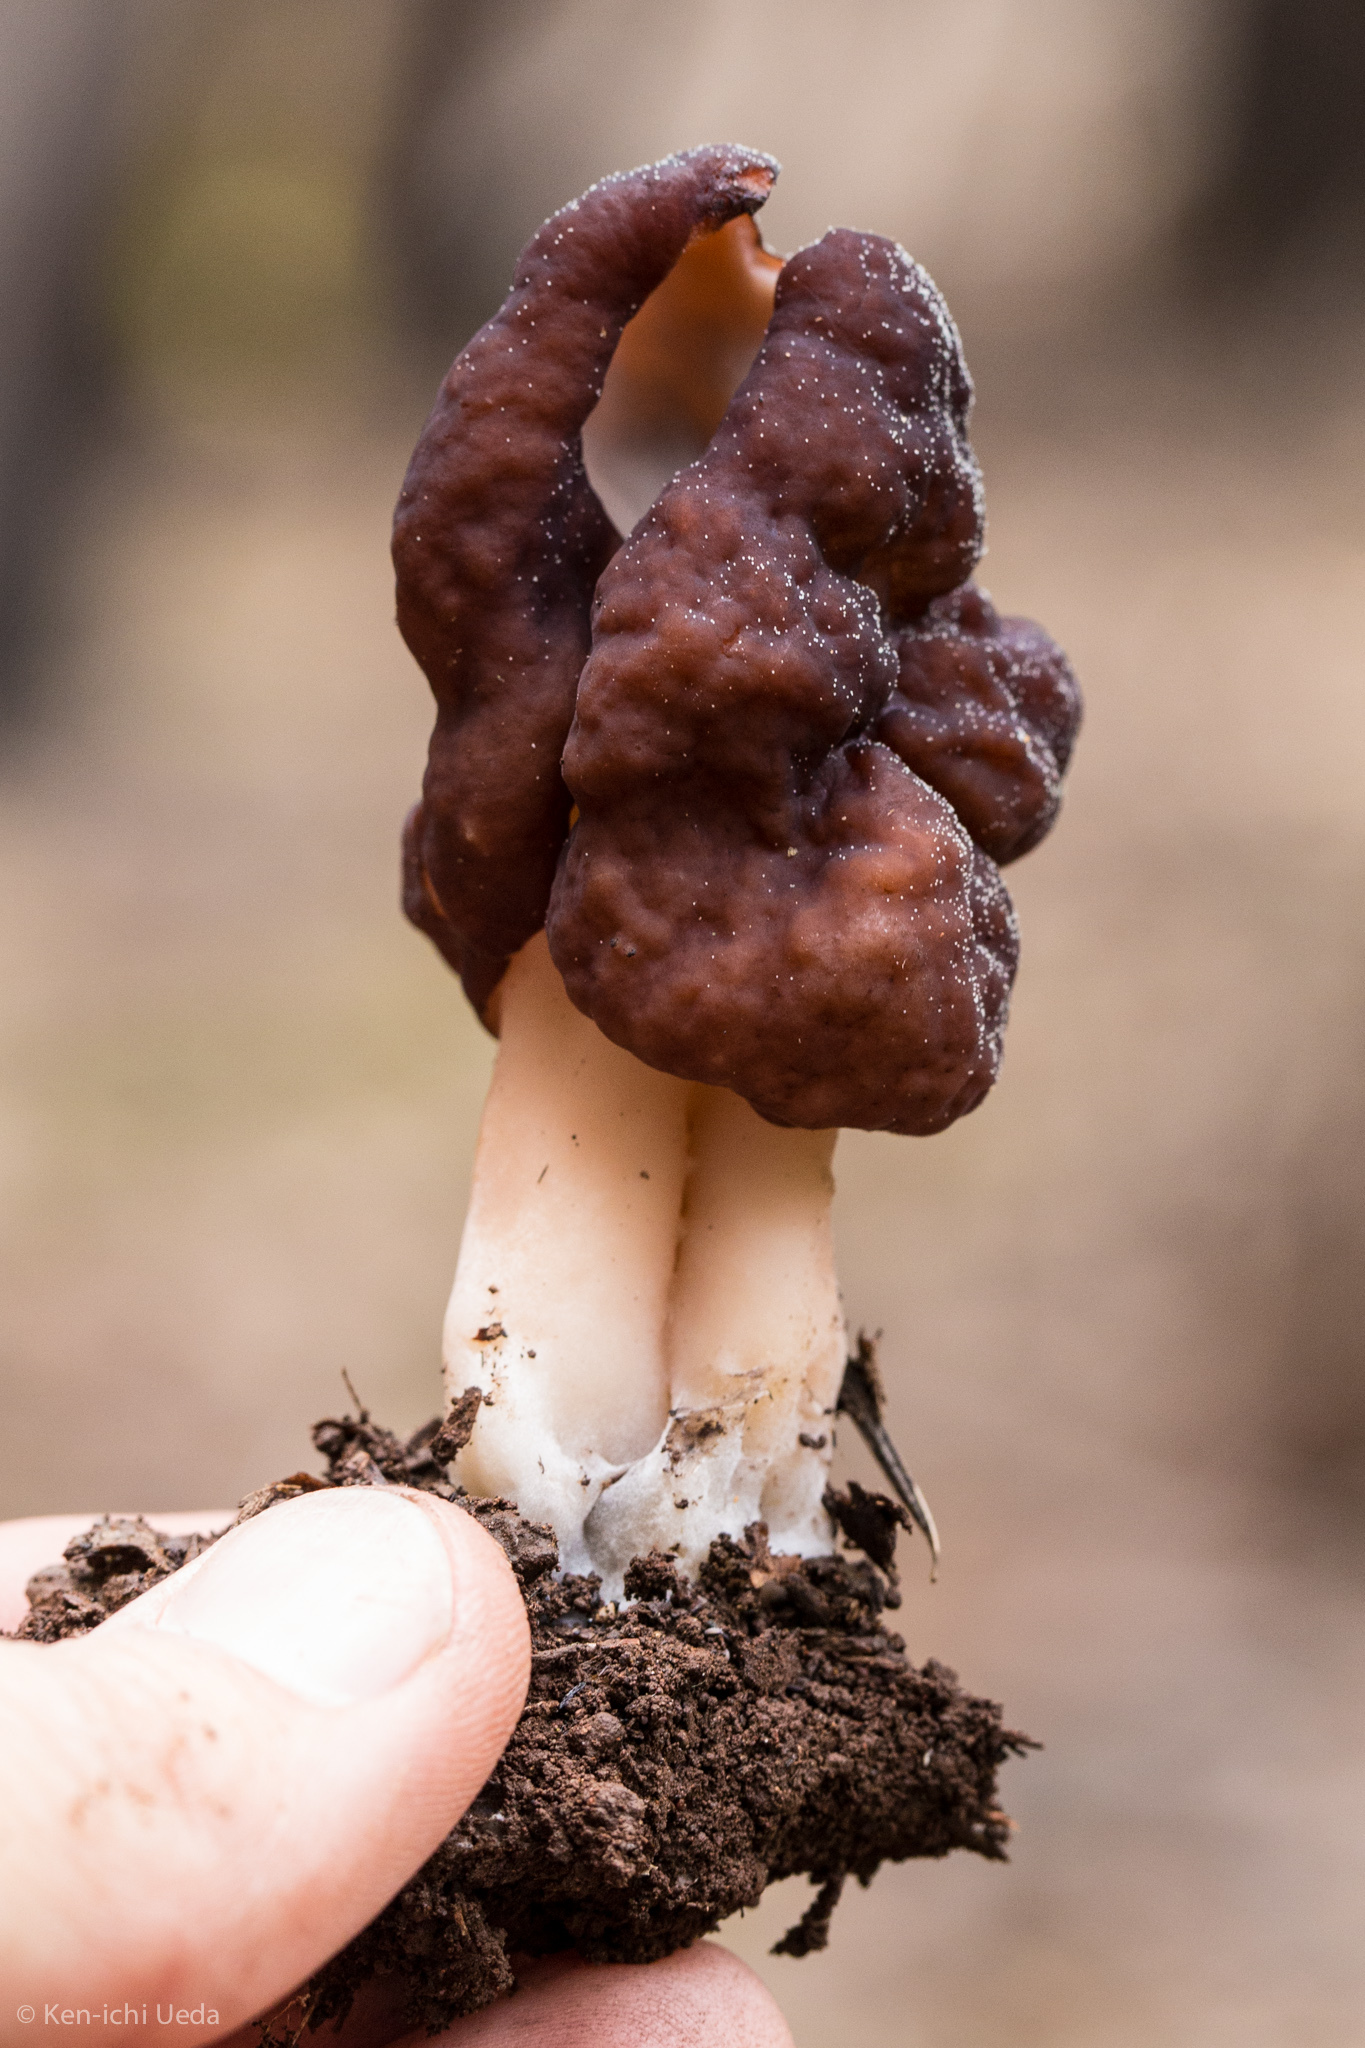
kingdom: Fungi
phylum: Ascomycota
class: Pezizomycetes
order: Pezizales
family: Discinaceae
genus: Gyromitra
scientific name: Gyromitra infula
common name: Pouched false morel
